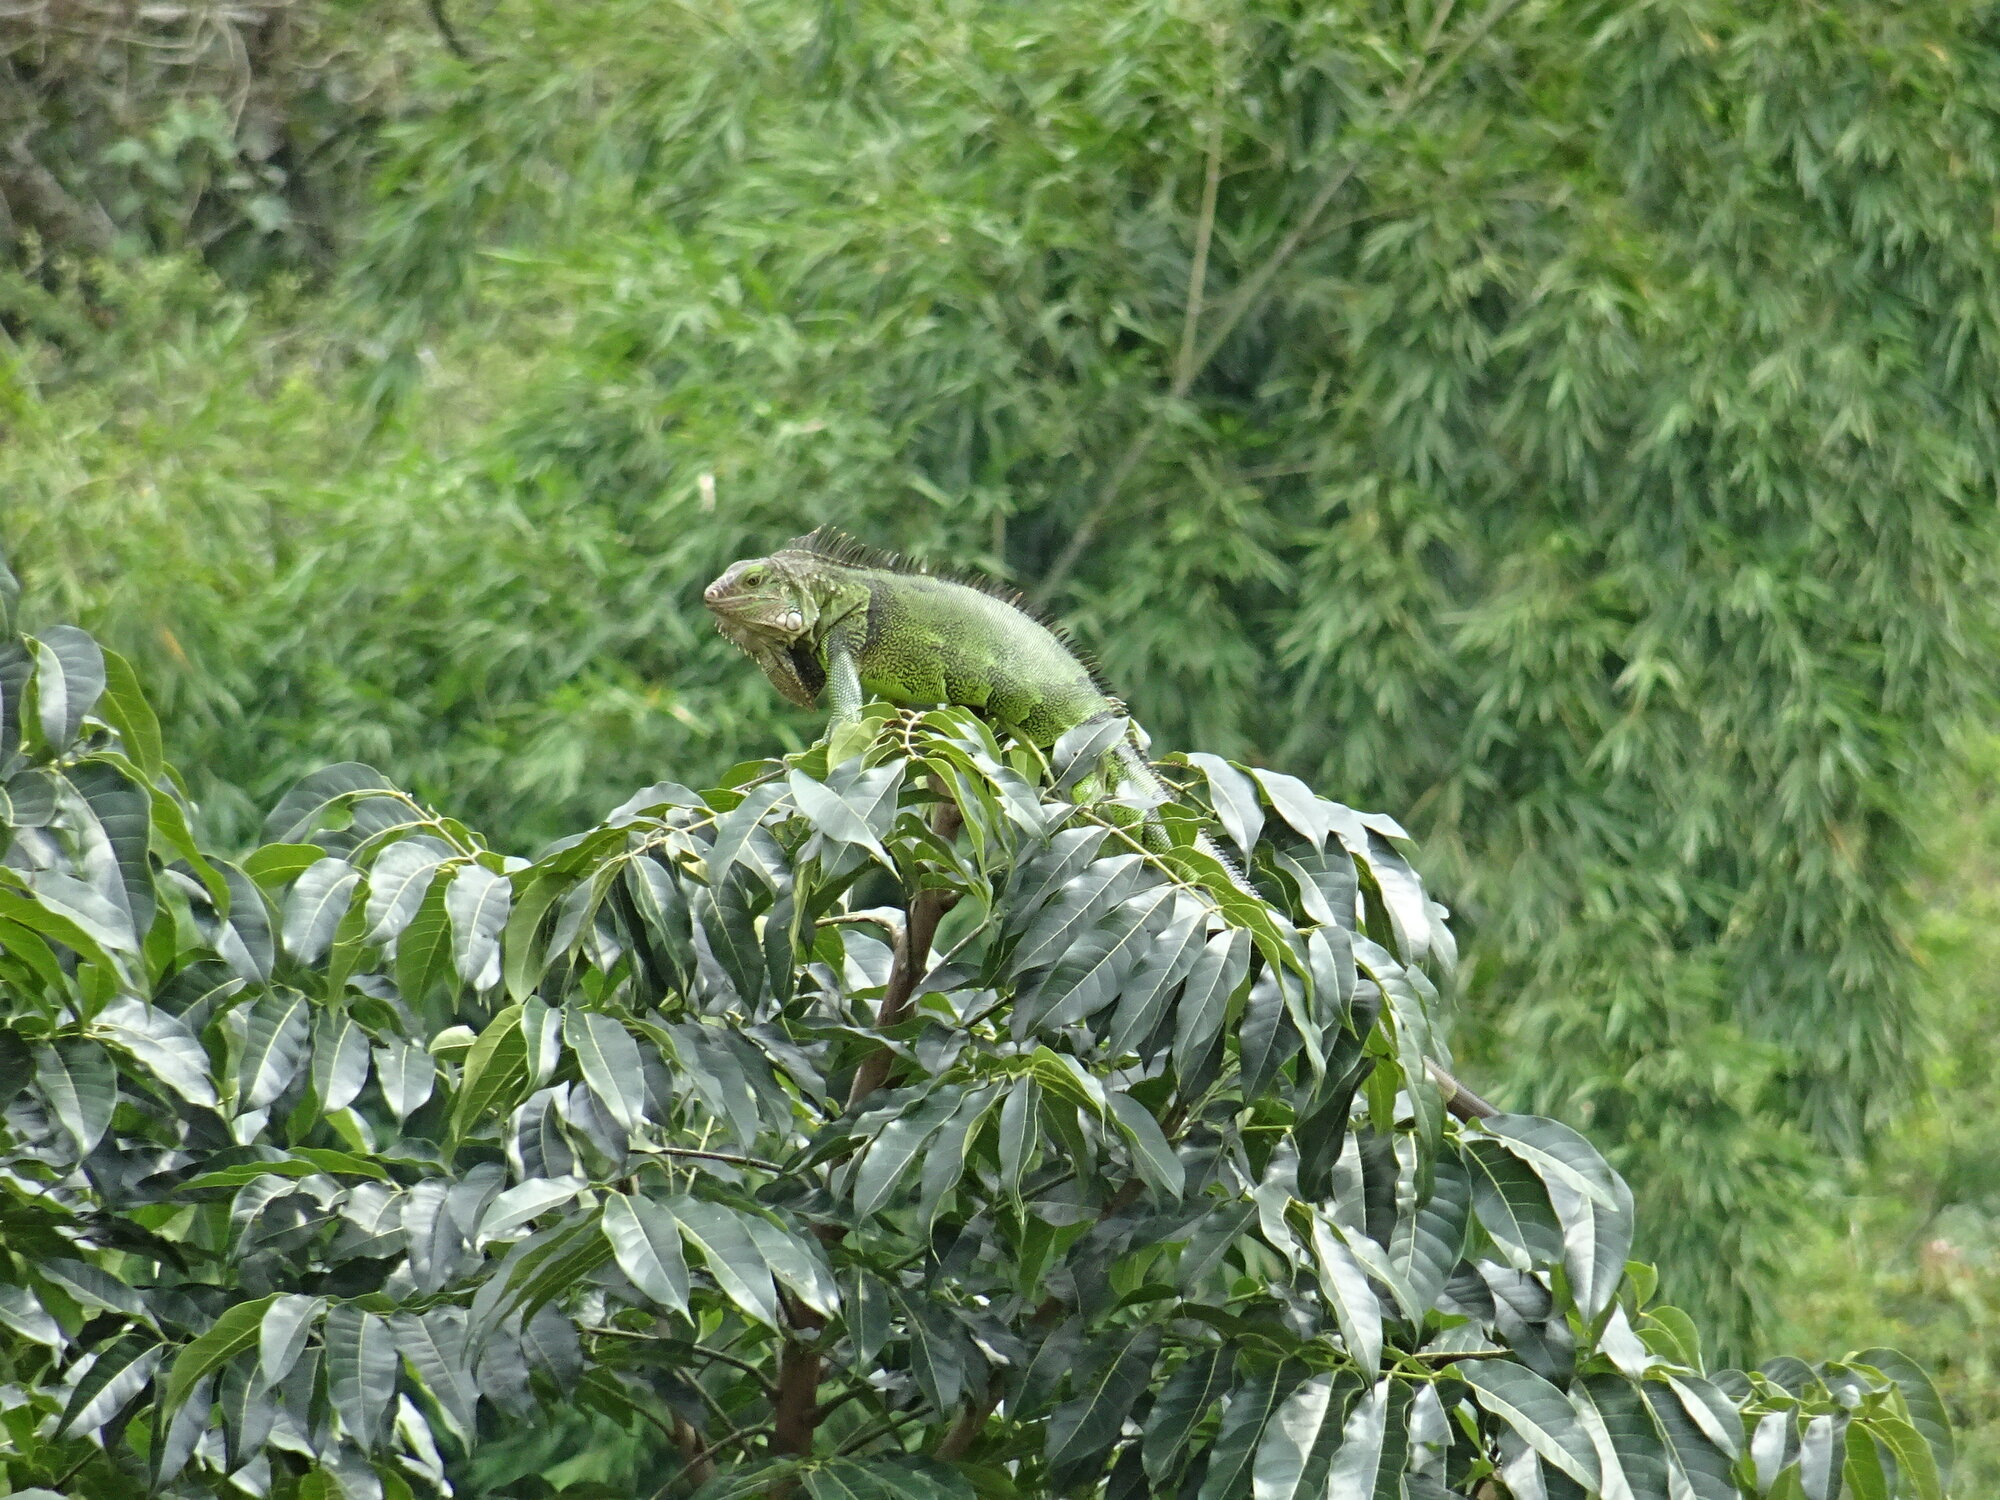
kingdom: Animalia
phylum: Chordata
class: Squamata
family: Iguanidae
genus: Iguana
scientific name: Iguana iguana
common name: Green iguana
